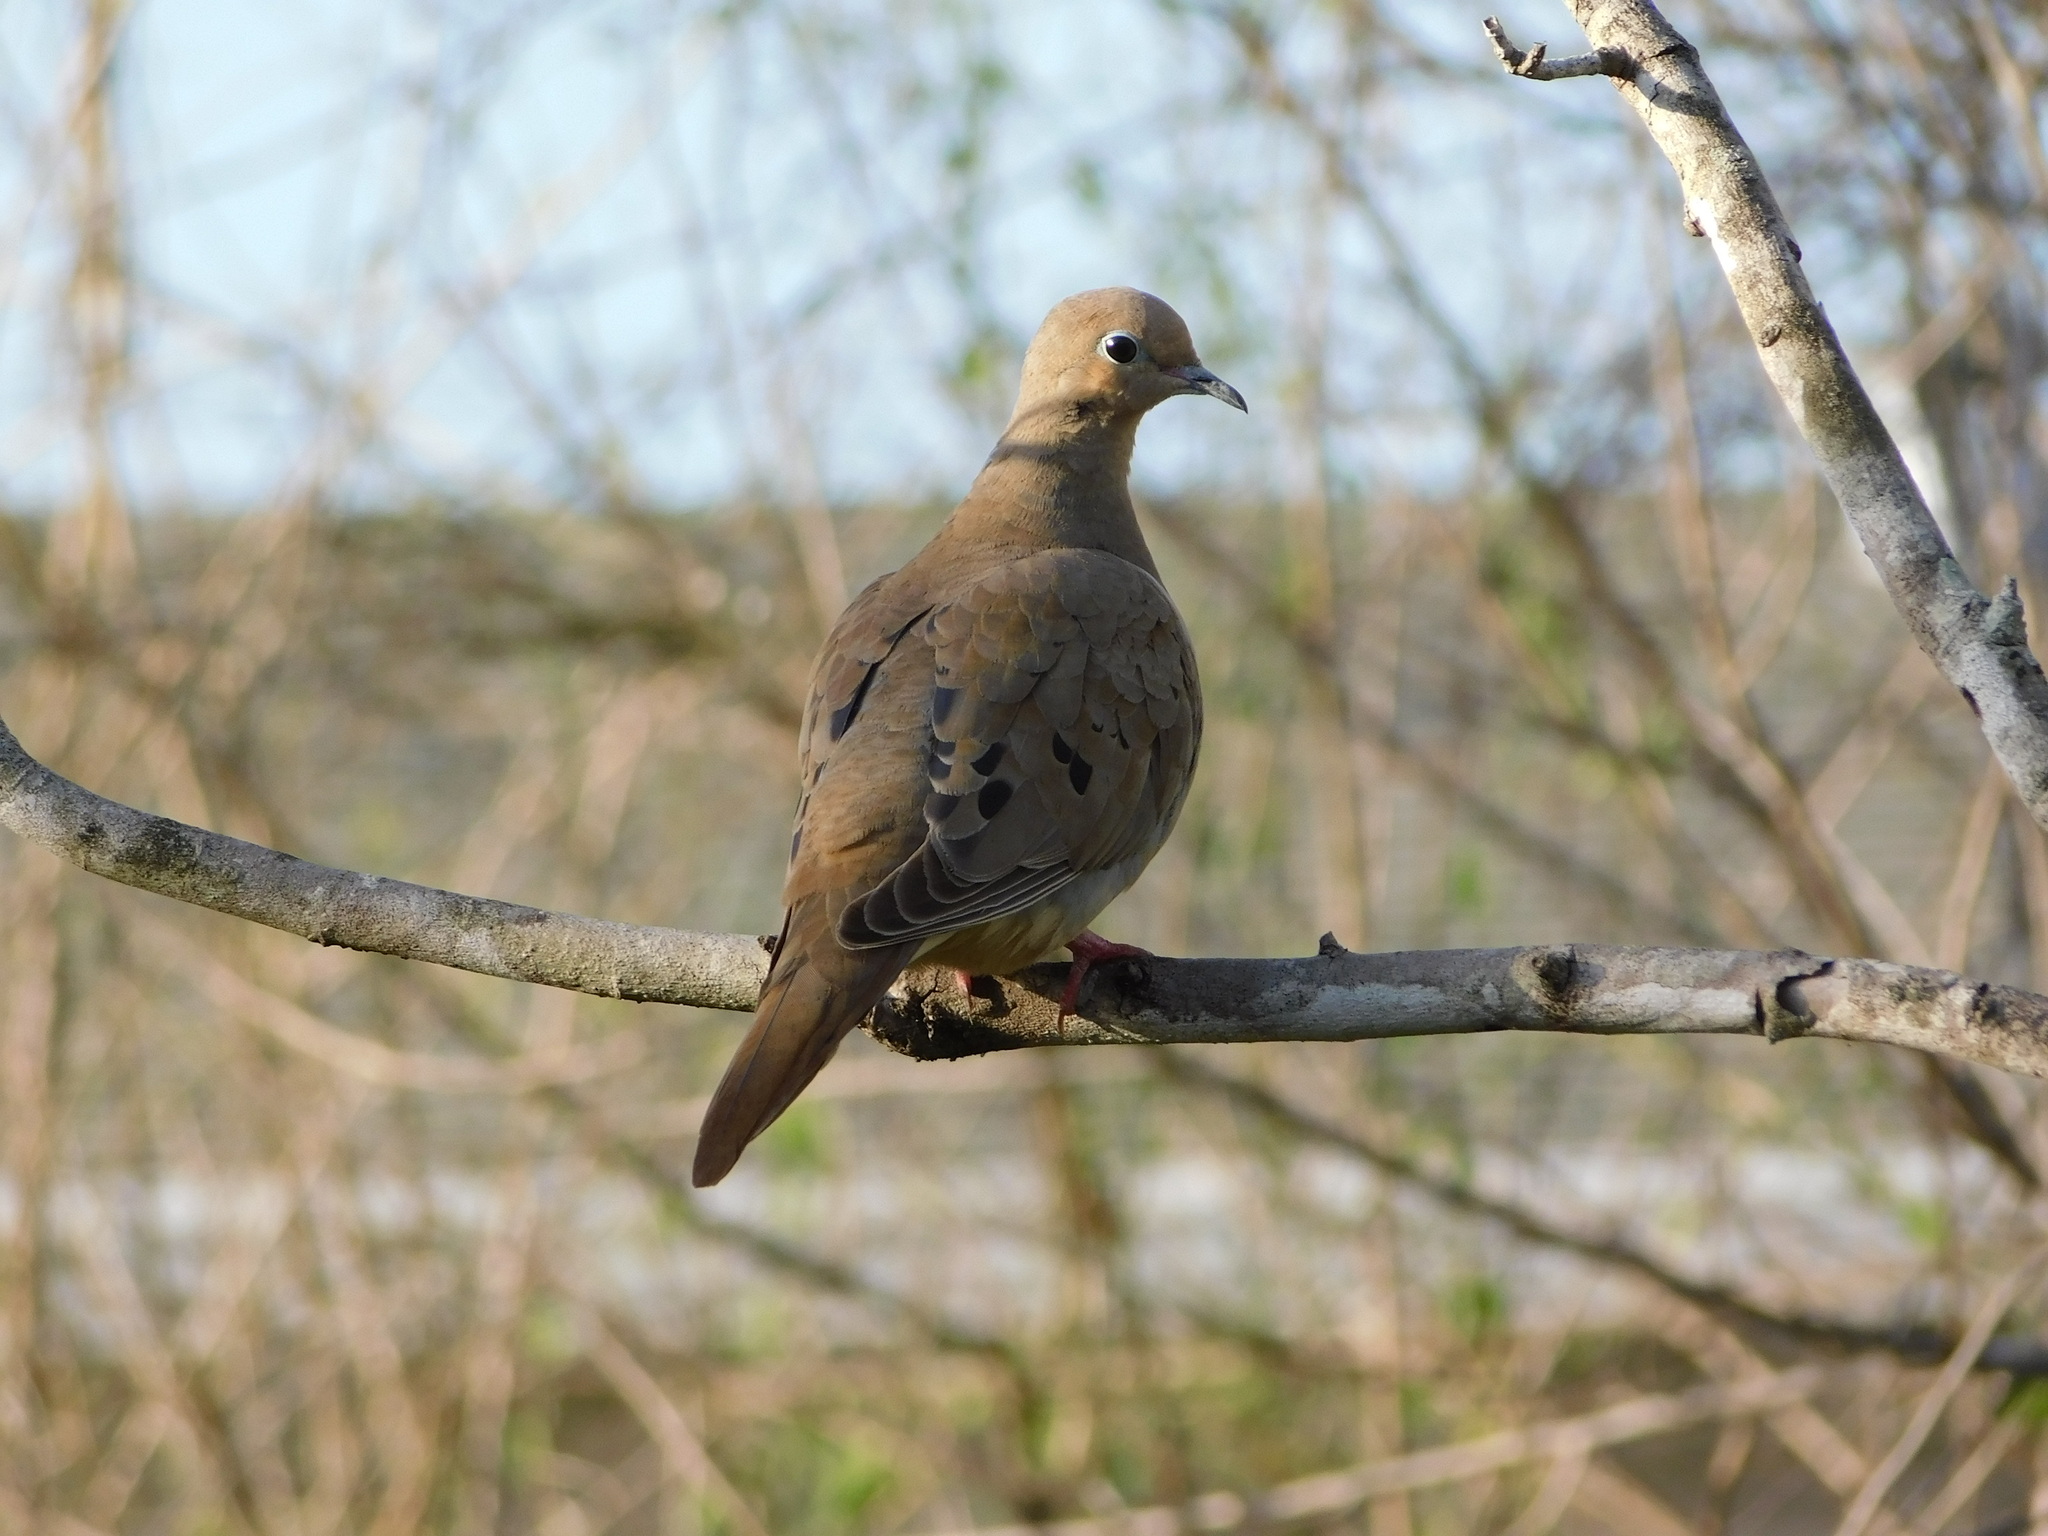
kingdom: Animalia
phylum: Chordata
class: Aves
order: Columbiformes
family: Columbidae
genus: Zenaida
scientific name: Zenaida macroura
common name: Mourning dove
